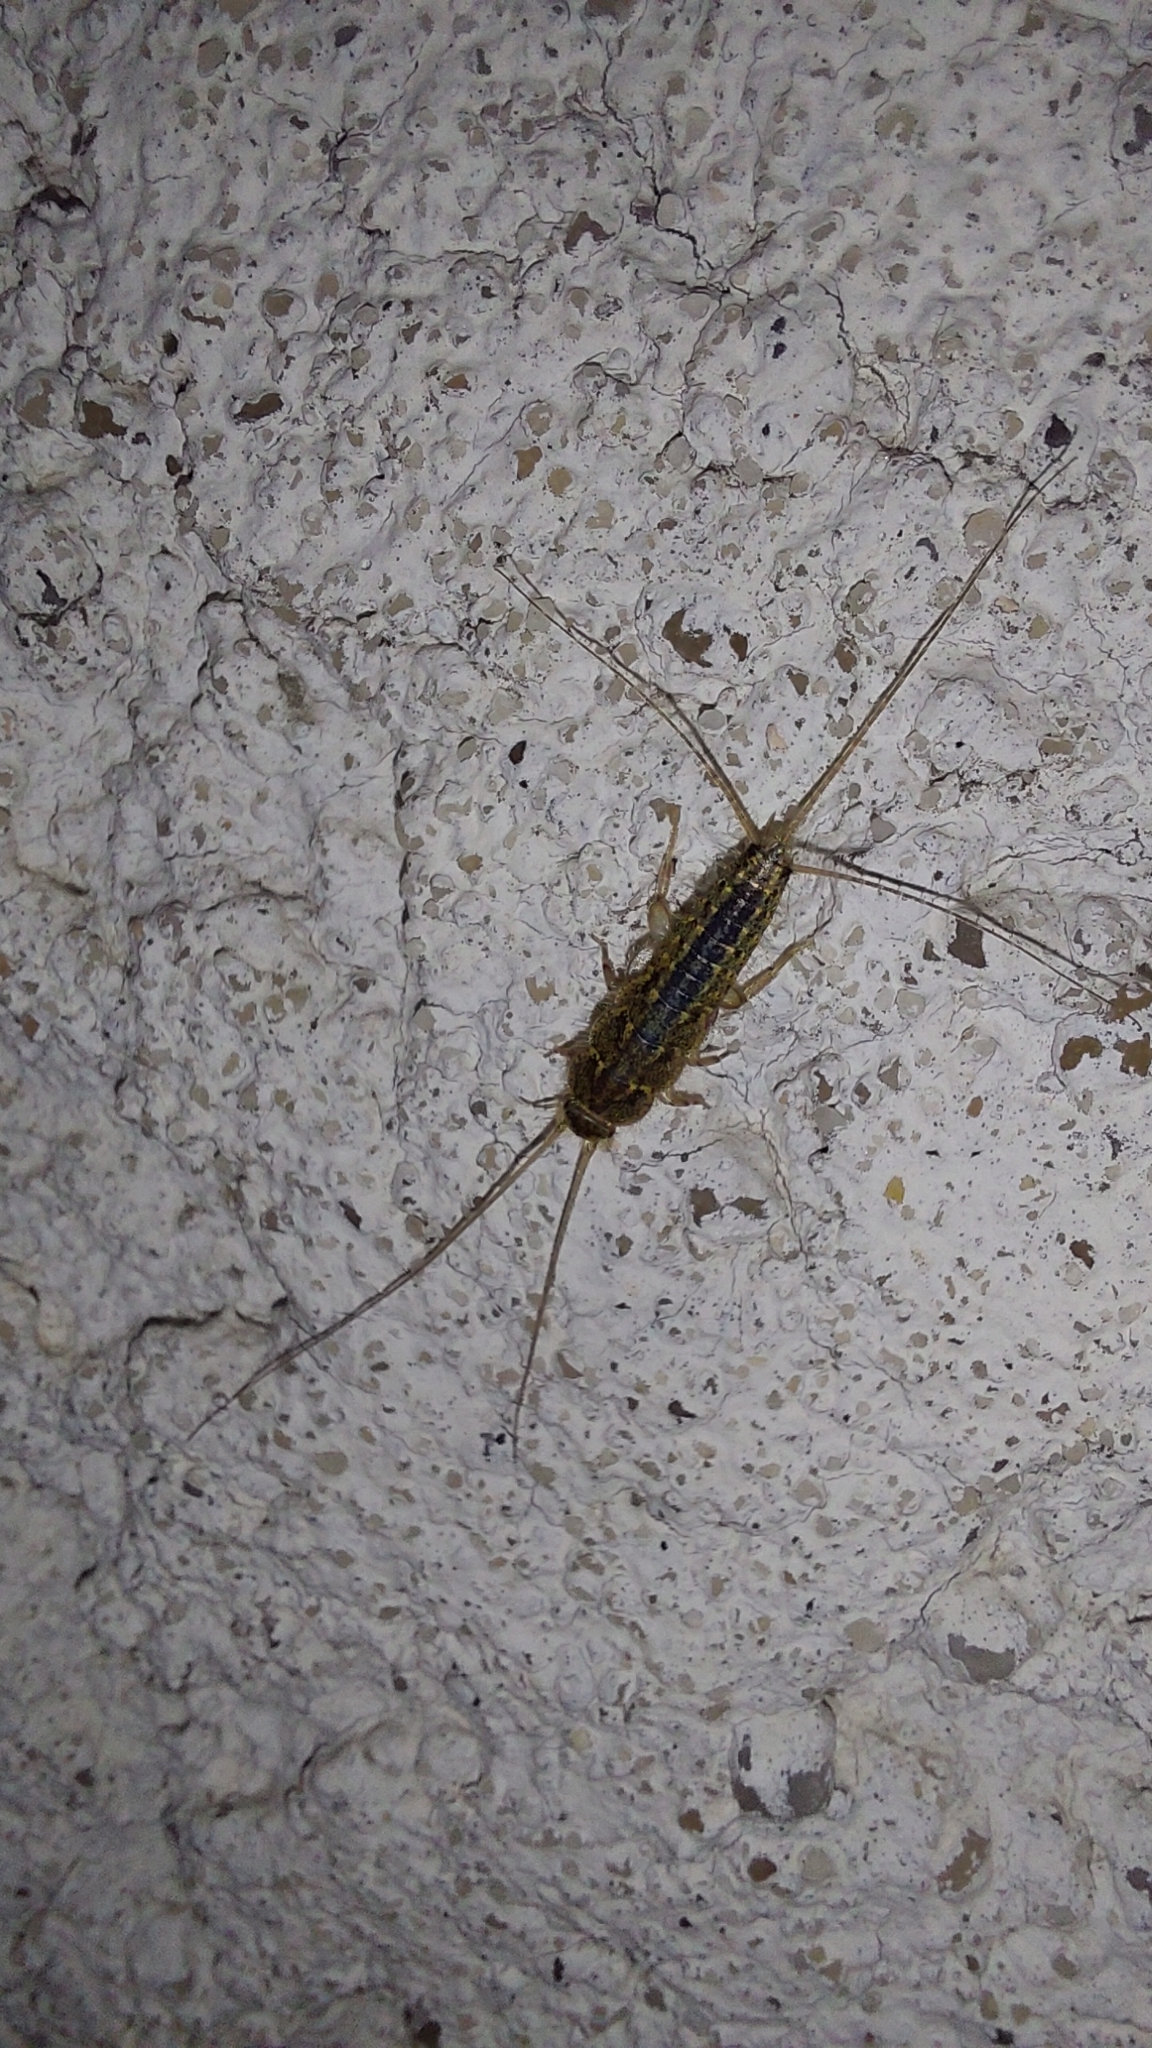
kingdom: Animalia
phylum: Arthropoda
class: Insecta
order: Zygentoma
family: Lepismatidae
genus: Ctenolepisma
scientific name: Ctenolepisma lineata
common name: Four-lined silverfish
